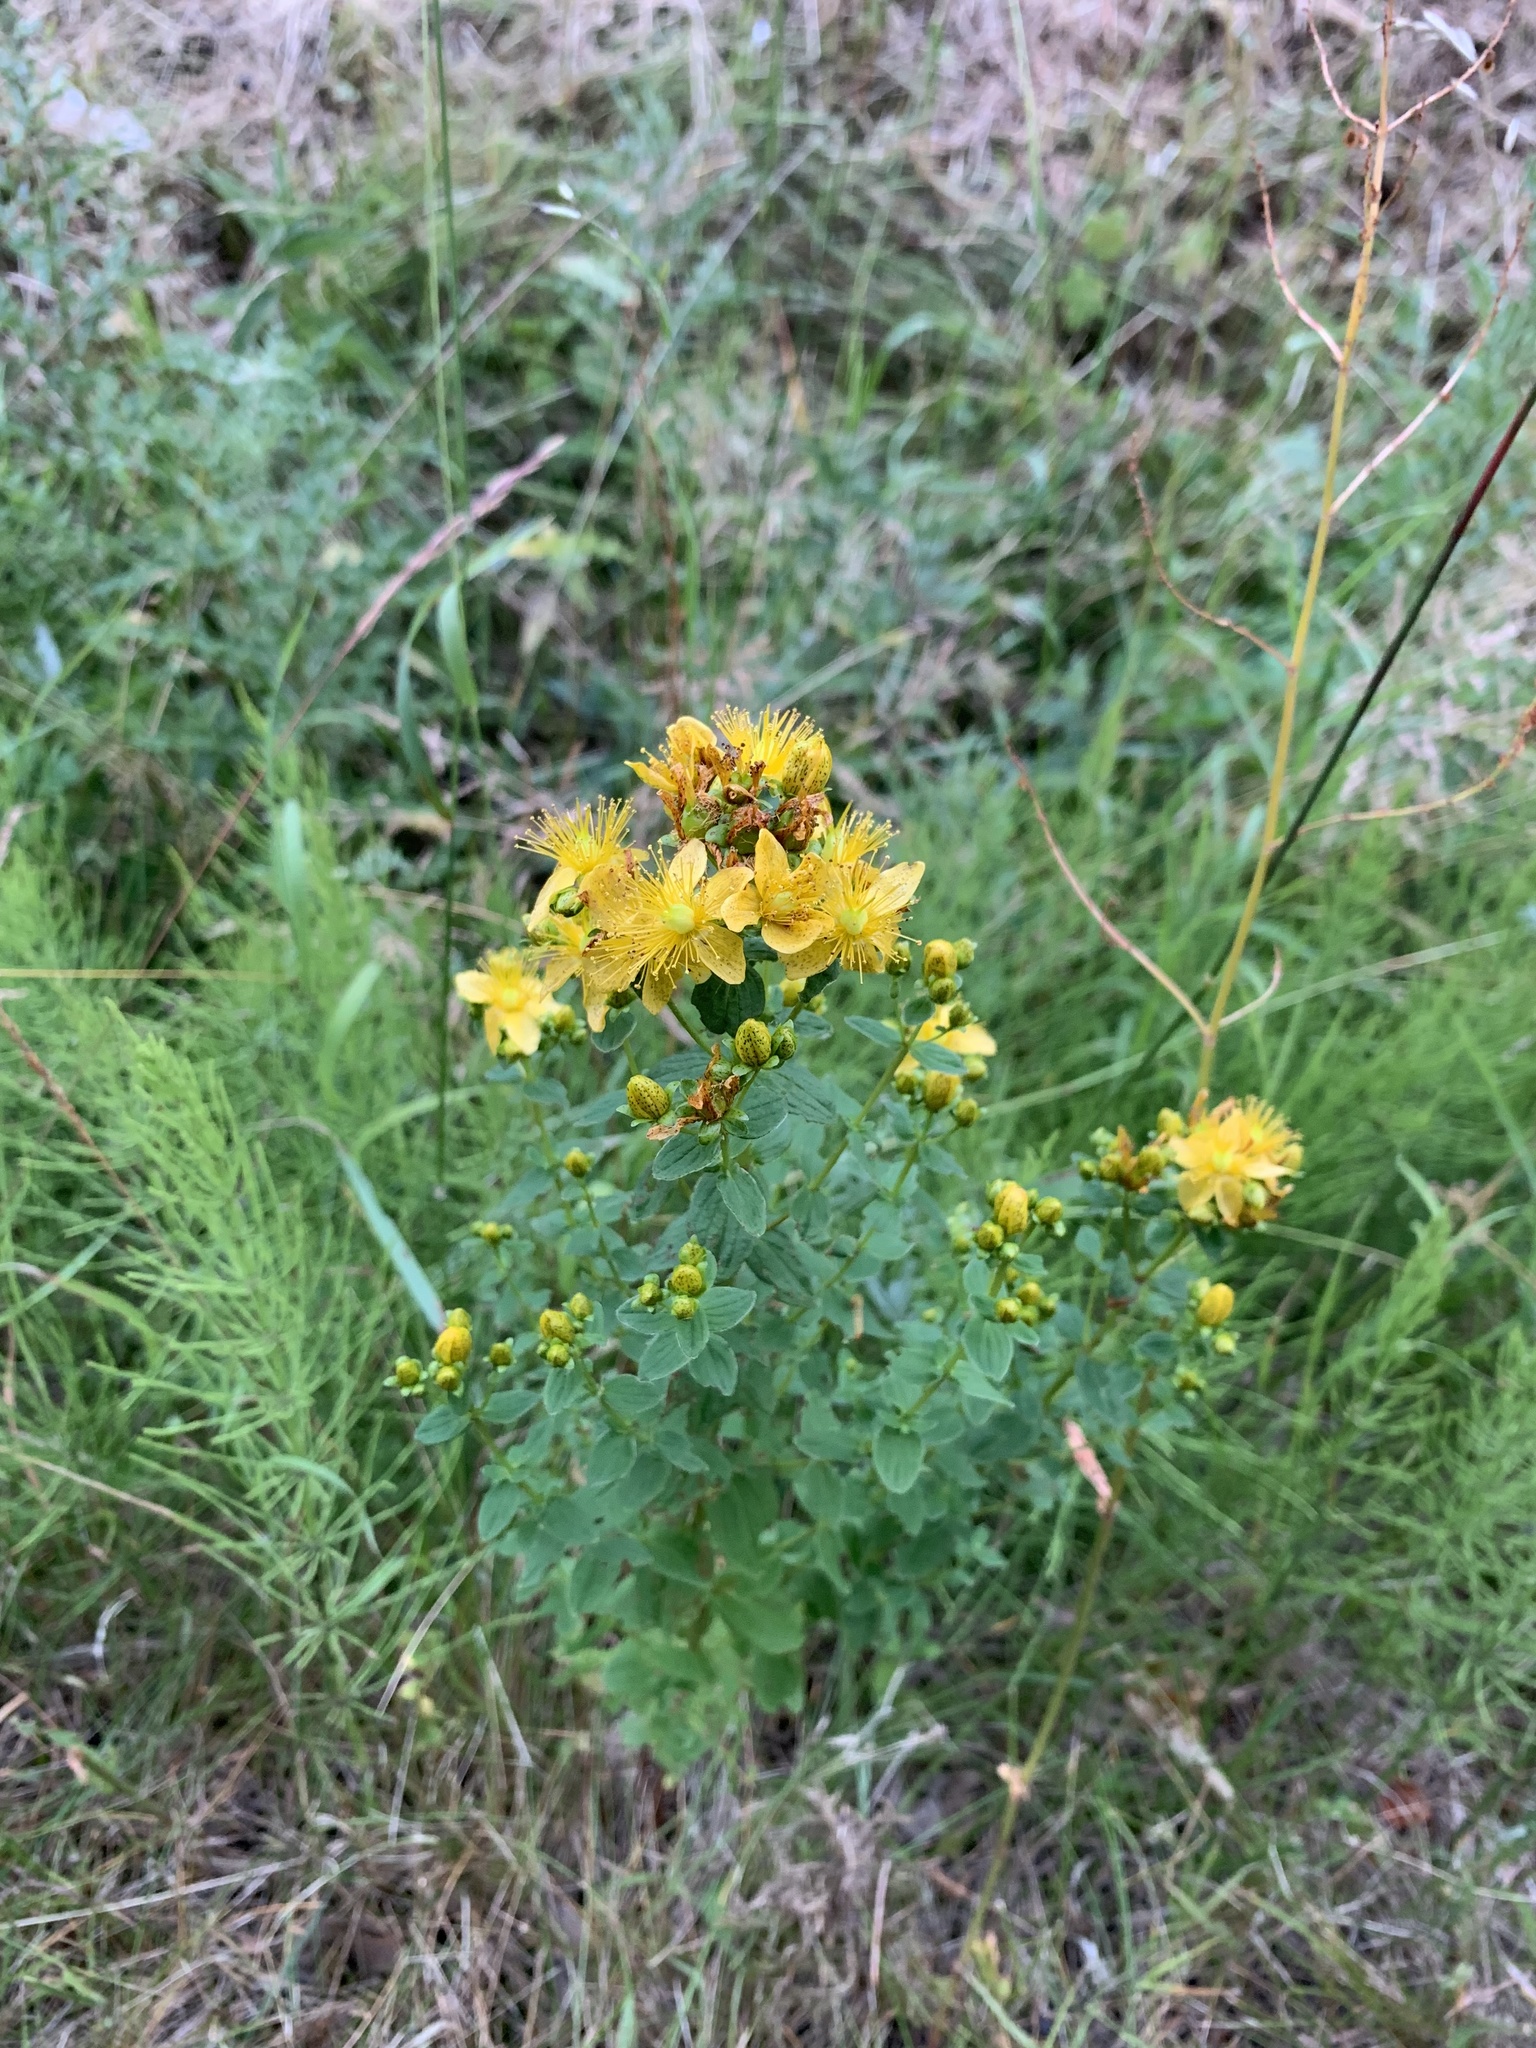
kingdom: Plantae
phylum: Tracheophyta
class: Magnoliopsida
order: Malpighiales
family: Hypericaceae
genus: Hypericum
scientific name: Hypericum perforatum
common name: Common st. johnswort
